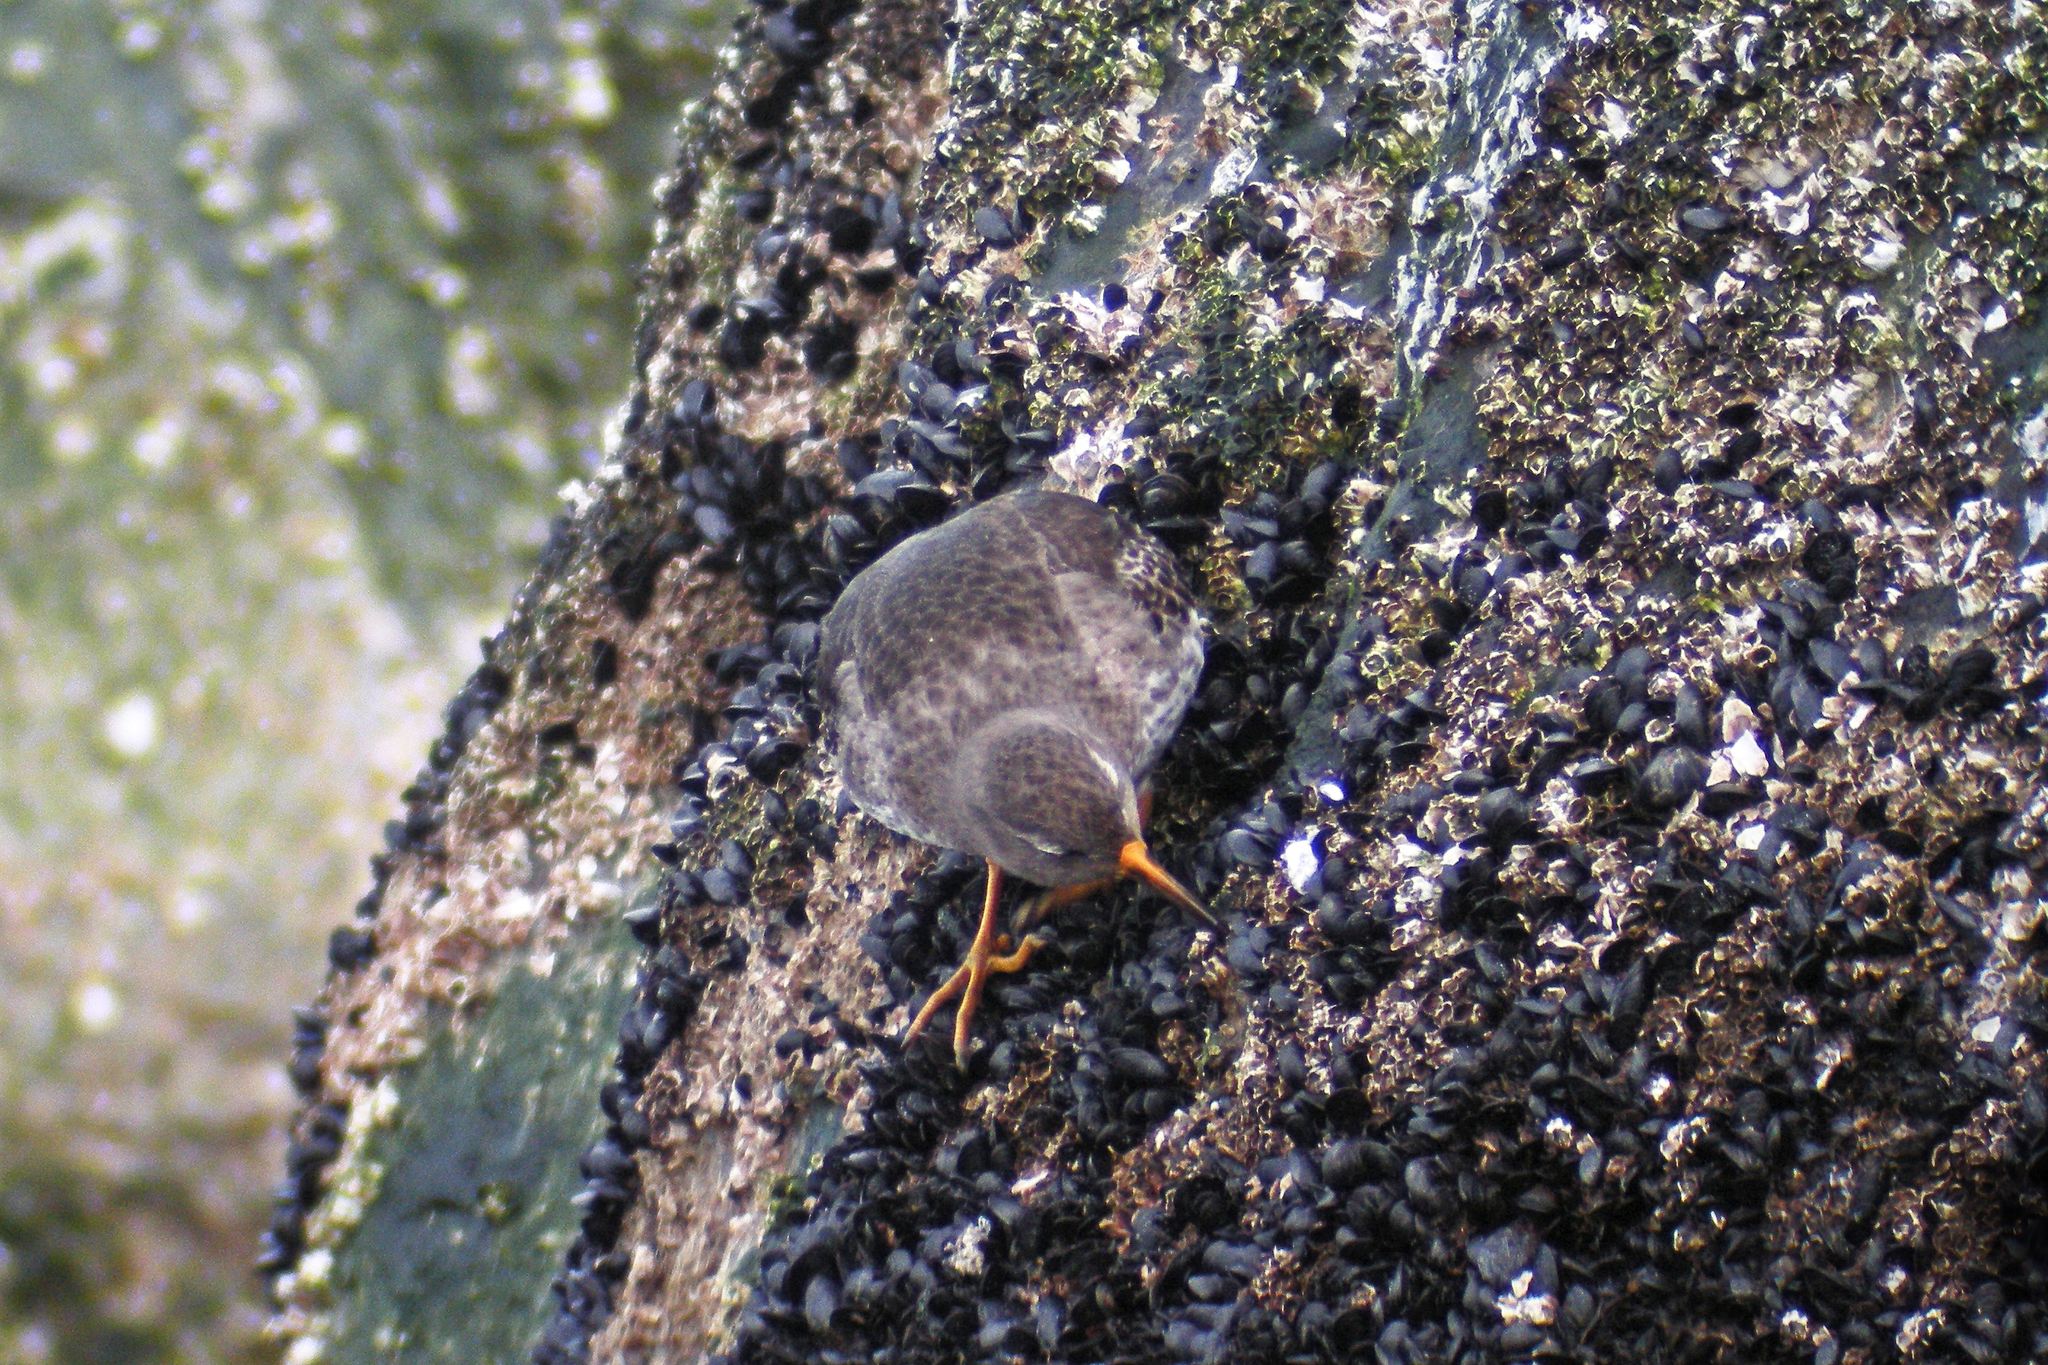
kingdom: Animalia
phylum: Chordata
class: Aves
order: Charadriiformes
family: Scolopacidae
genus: Calidris
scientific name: Calidris maritima
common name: Purple sandpiper
